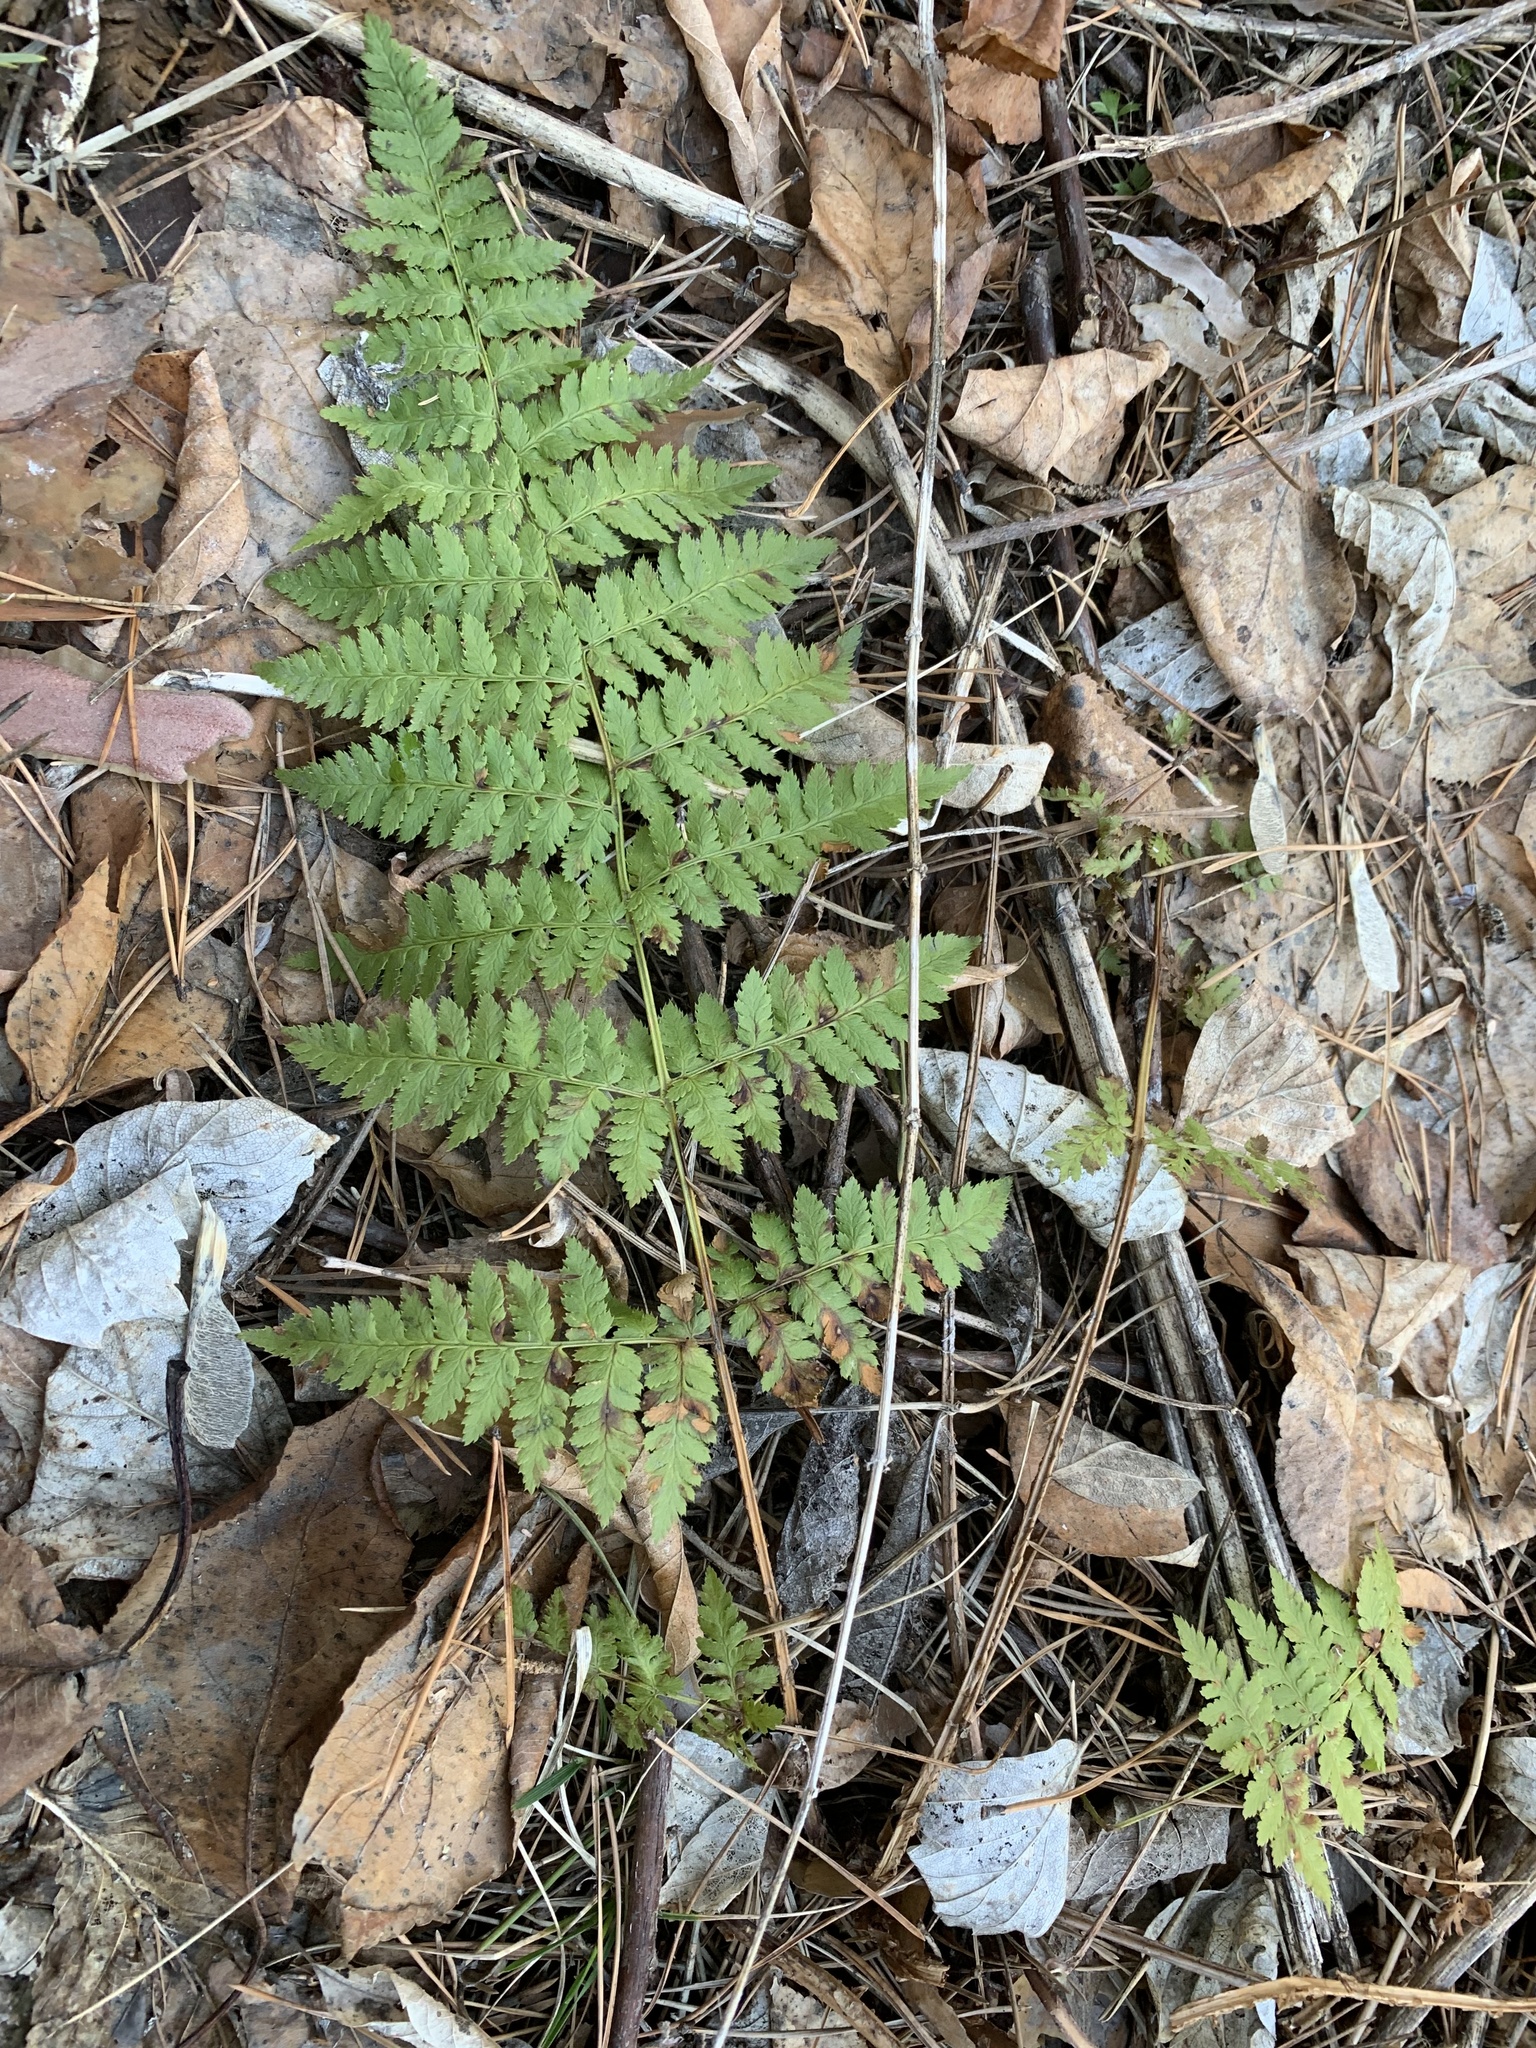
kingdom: Plantae
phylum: Tracheophyta
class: Polypodiopsida
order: Polypodiales
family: Dryopteridaceae
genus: Dryopteris
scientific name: Dryopteris carthusiana
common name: Narrow buckler-fern
